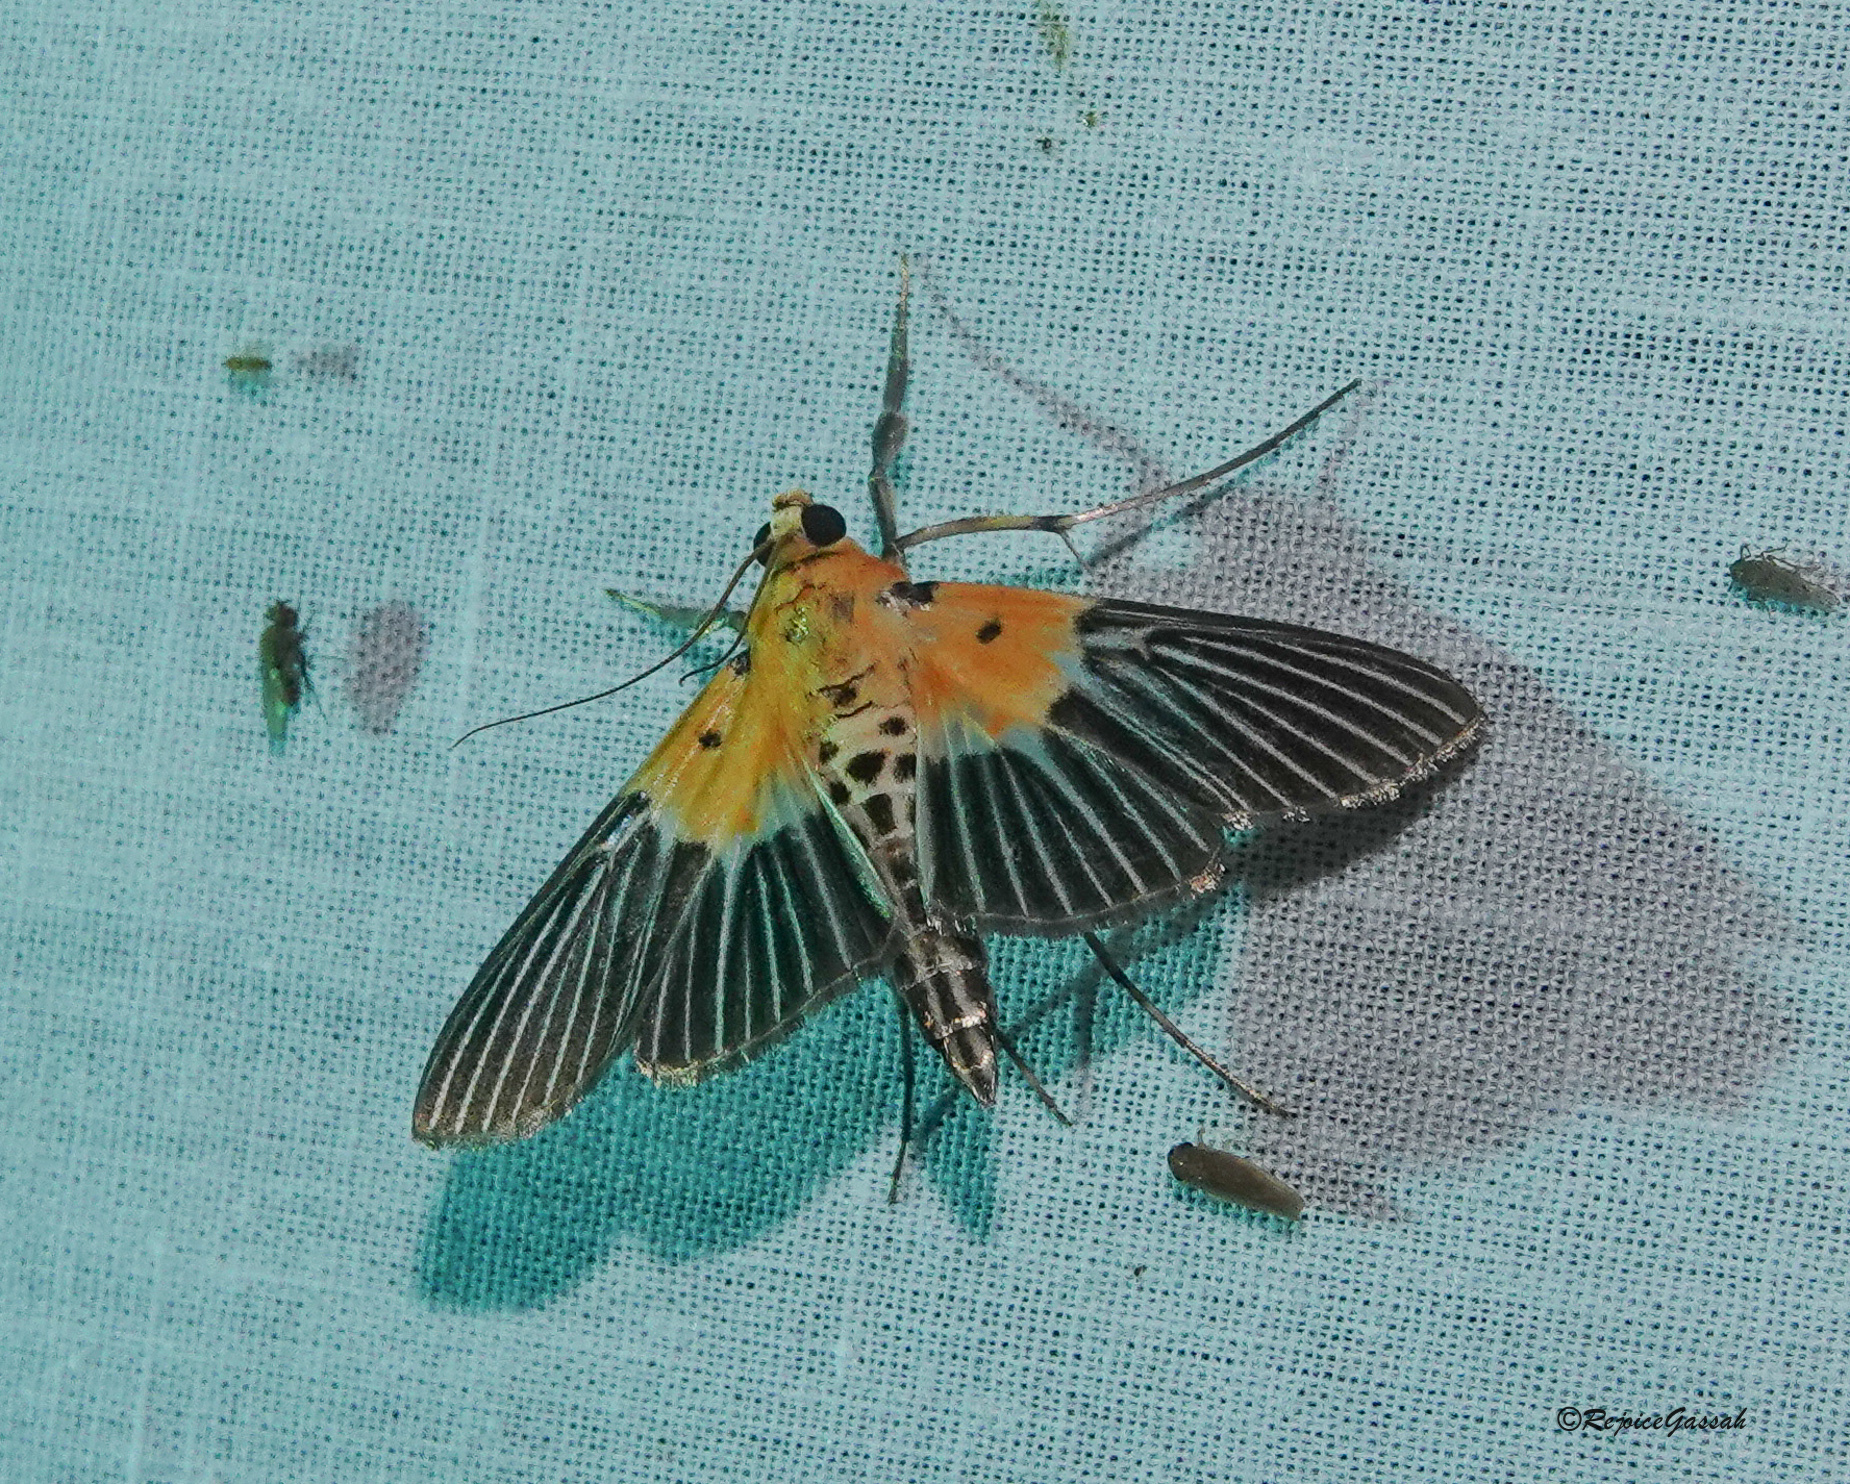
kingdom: Animalia
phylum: Arthropoda
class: Insecta
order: Lepidoptera
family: Crambidae
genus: Nevrina
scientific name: Nevrina procopia
